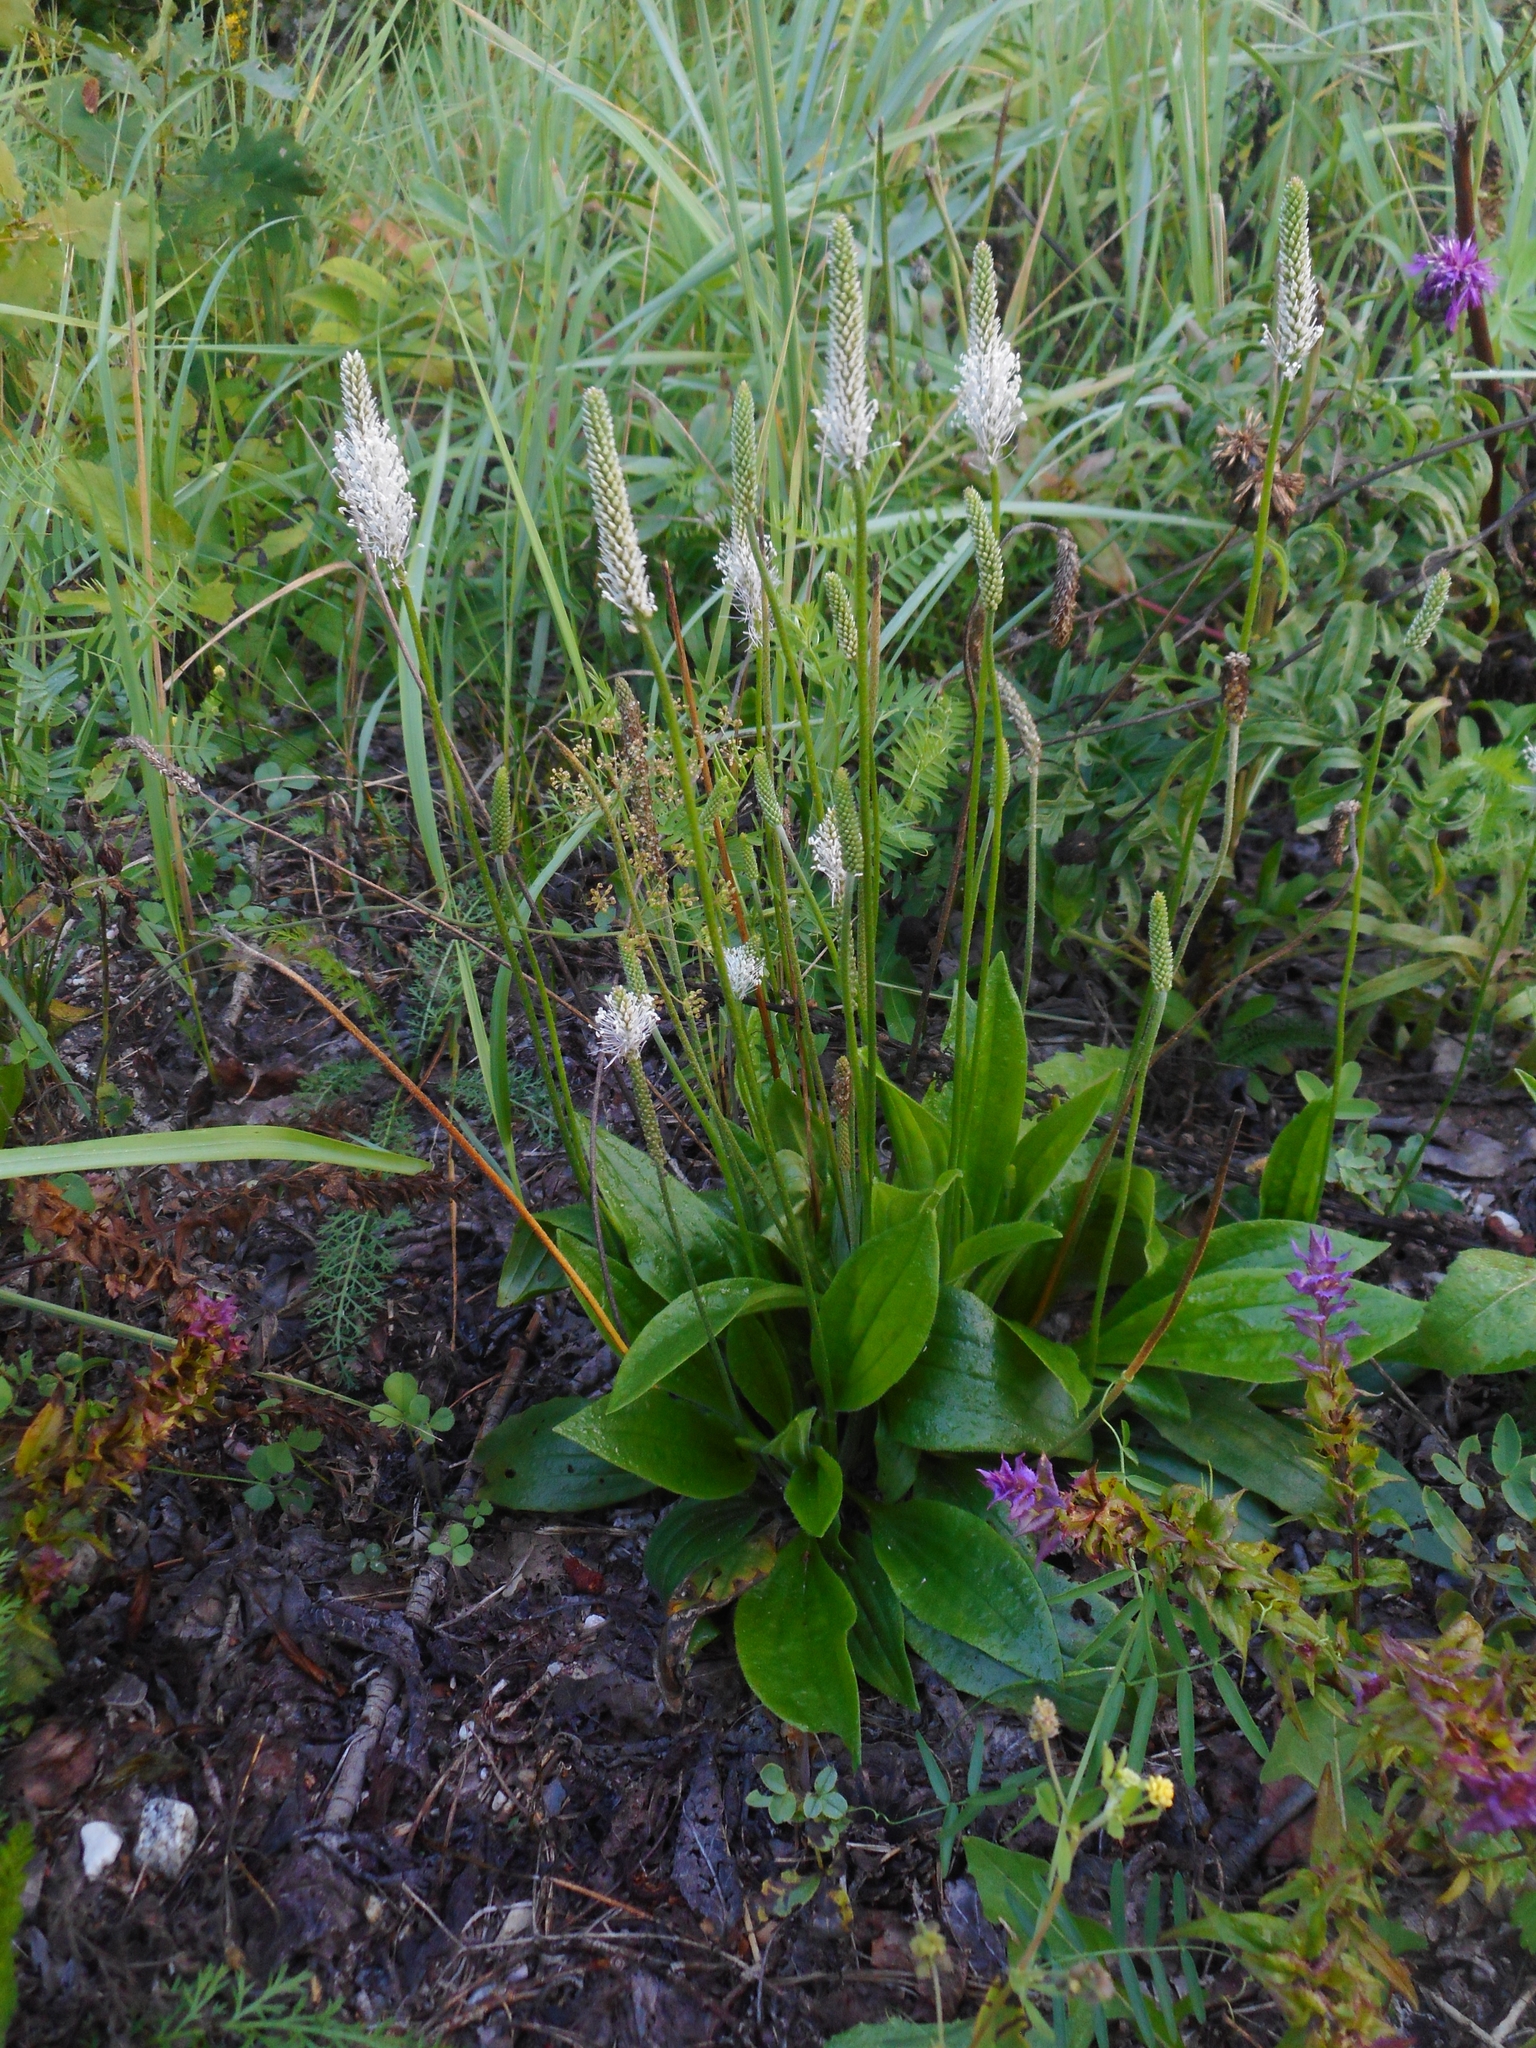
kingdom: Plantae
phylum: Tracheophyta
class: Magnoliopsida
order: Lamiales
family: Plantaginaceae
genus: Plantago
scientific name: Plantago media
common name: Hoary plantain
